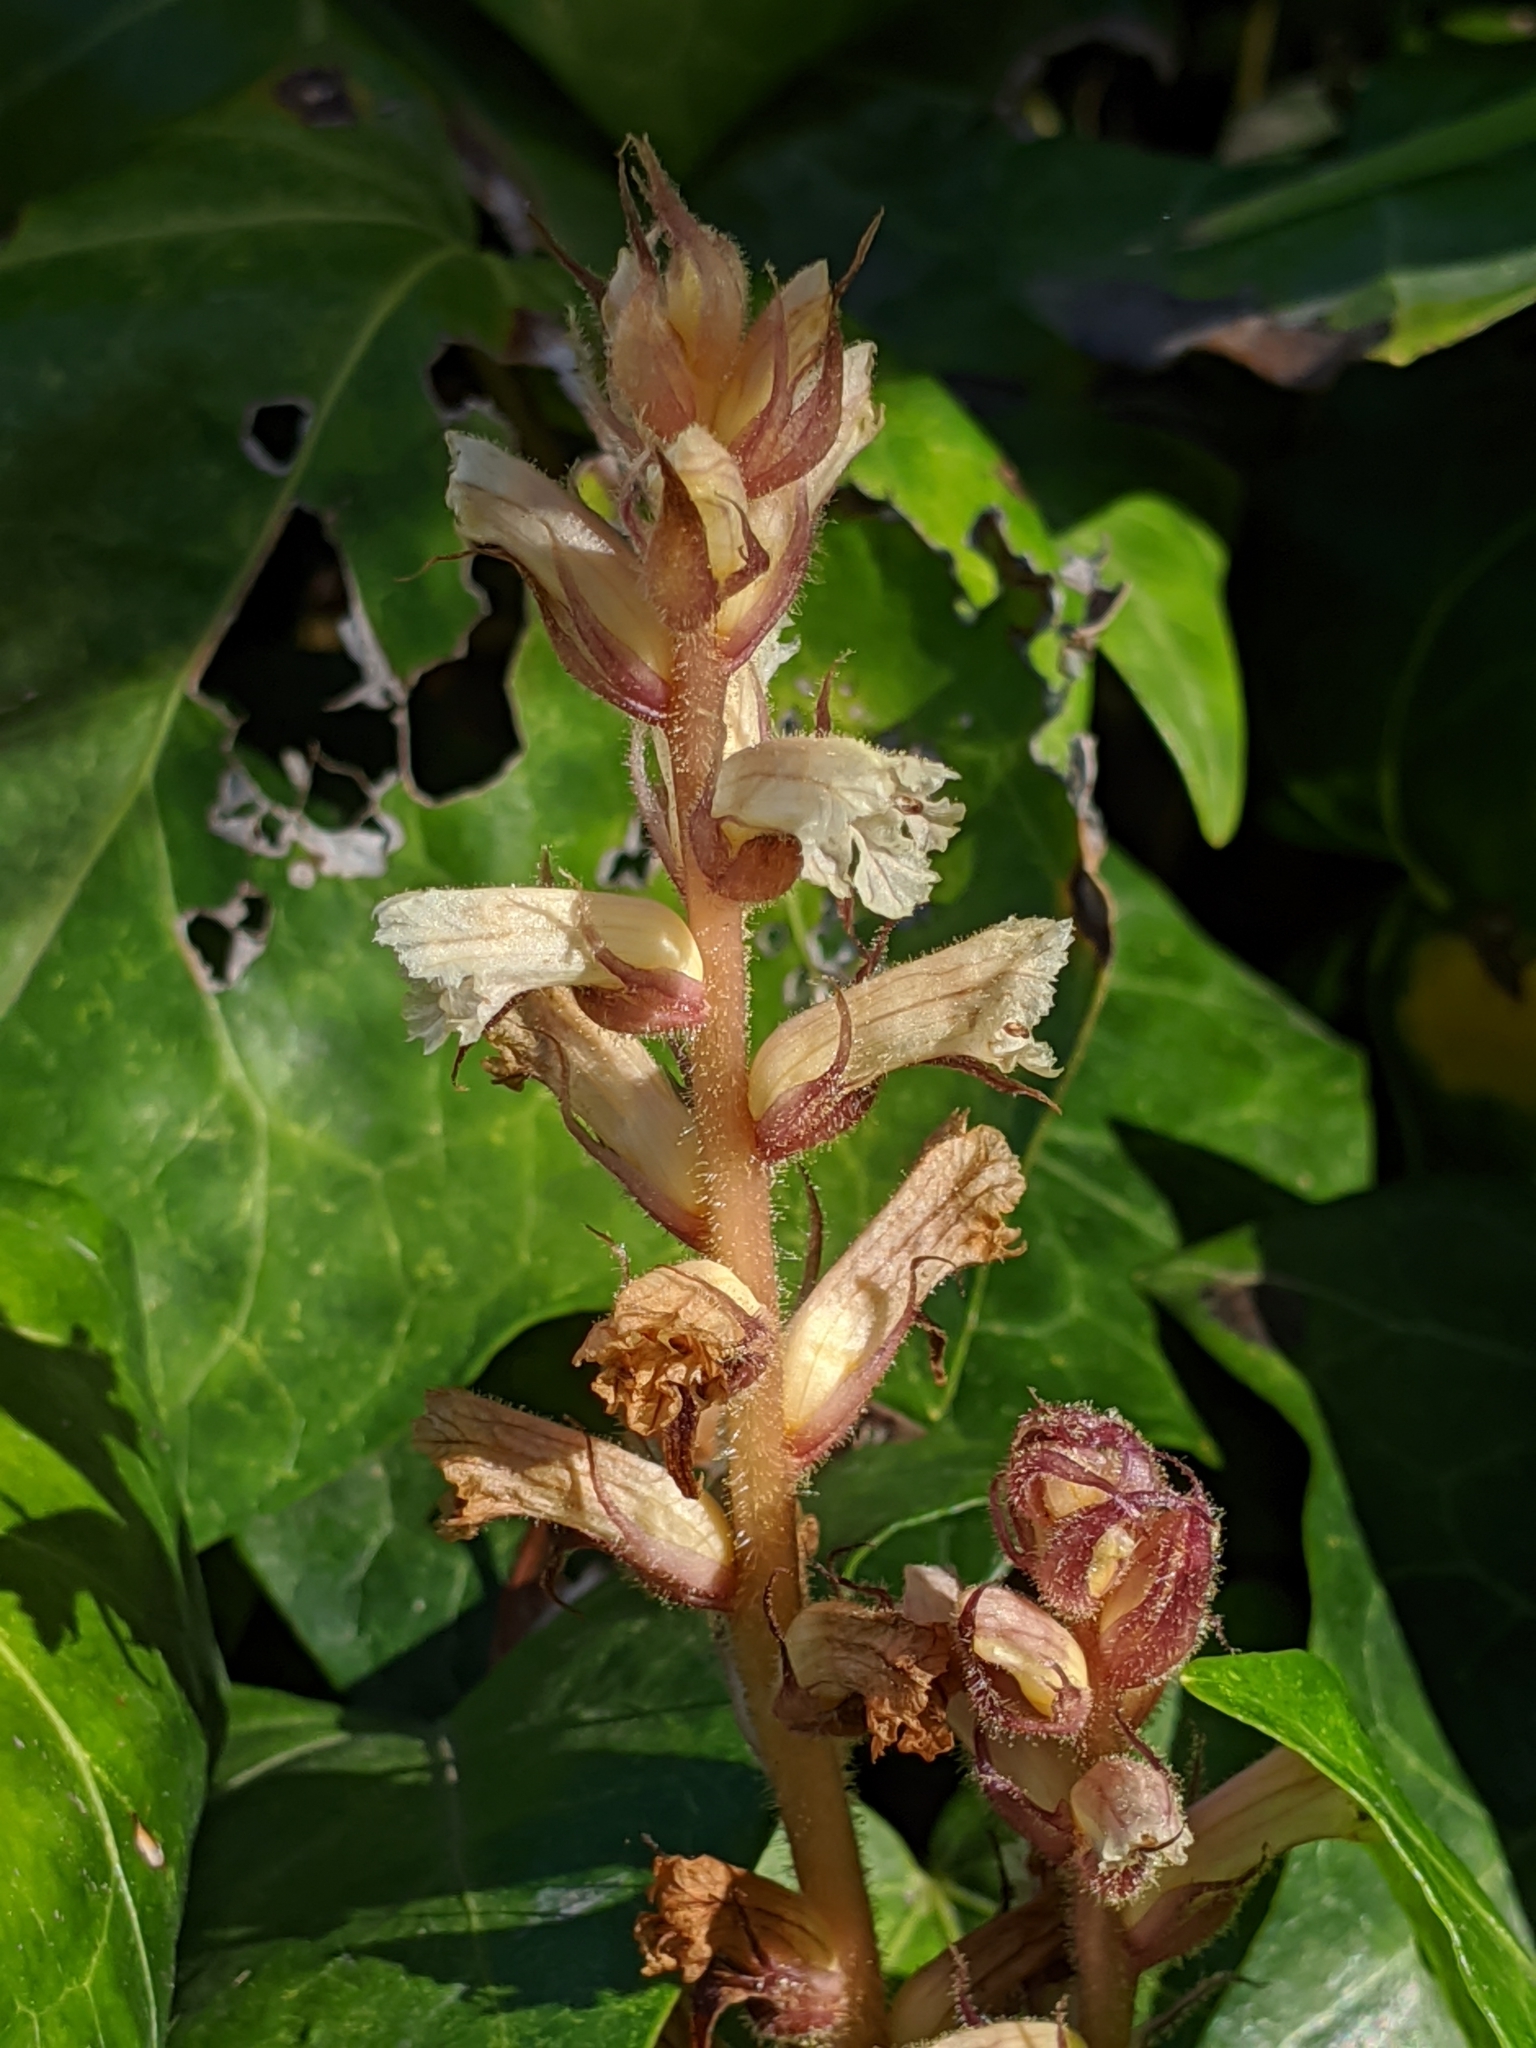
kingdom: Plantae
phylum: Tracheophyta
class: Magnoliopsida
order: Lamiales
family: Orobanchaceae
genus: Orobanche
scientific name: Orobanche hederae
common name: Ivy broomrape
